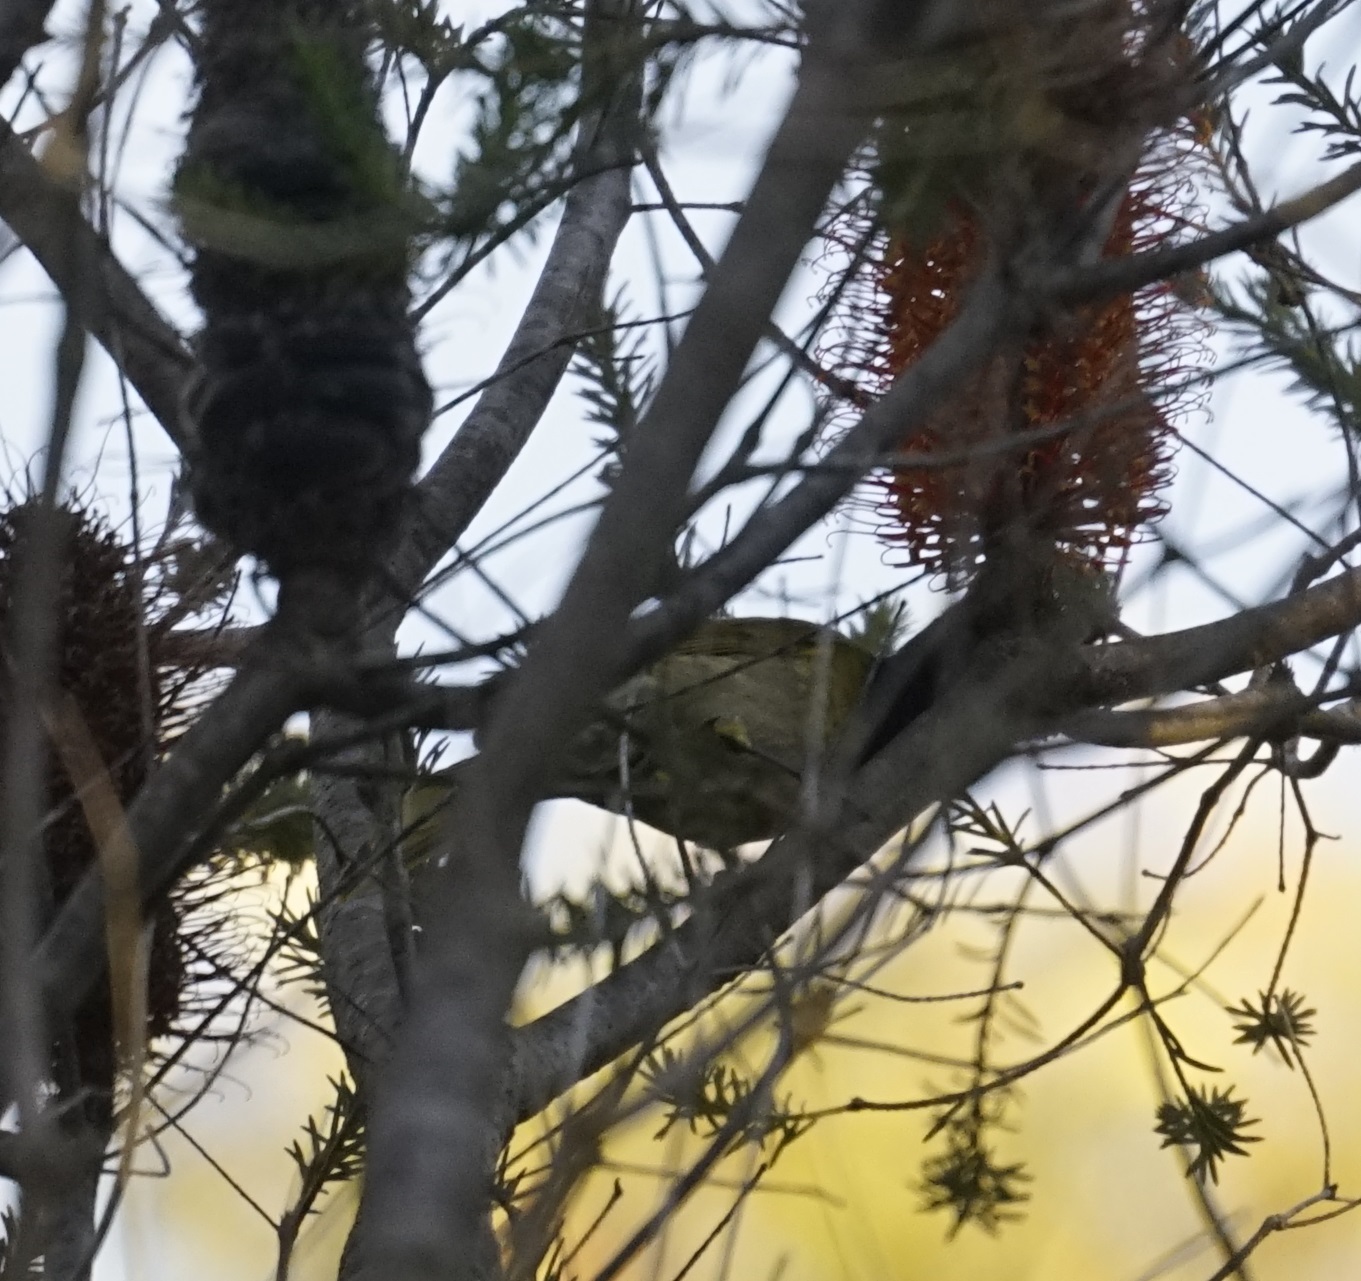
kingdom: Animalia
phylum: Chordata
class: Aves
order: Passeriformes
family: Meliphagidae
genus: Meliphaga
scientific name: Meliphaga lewinii
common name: Lewin's honeyeater
